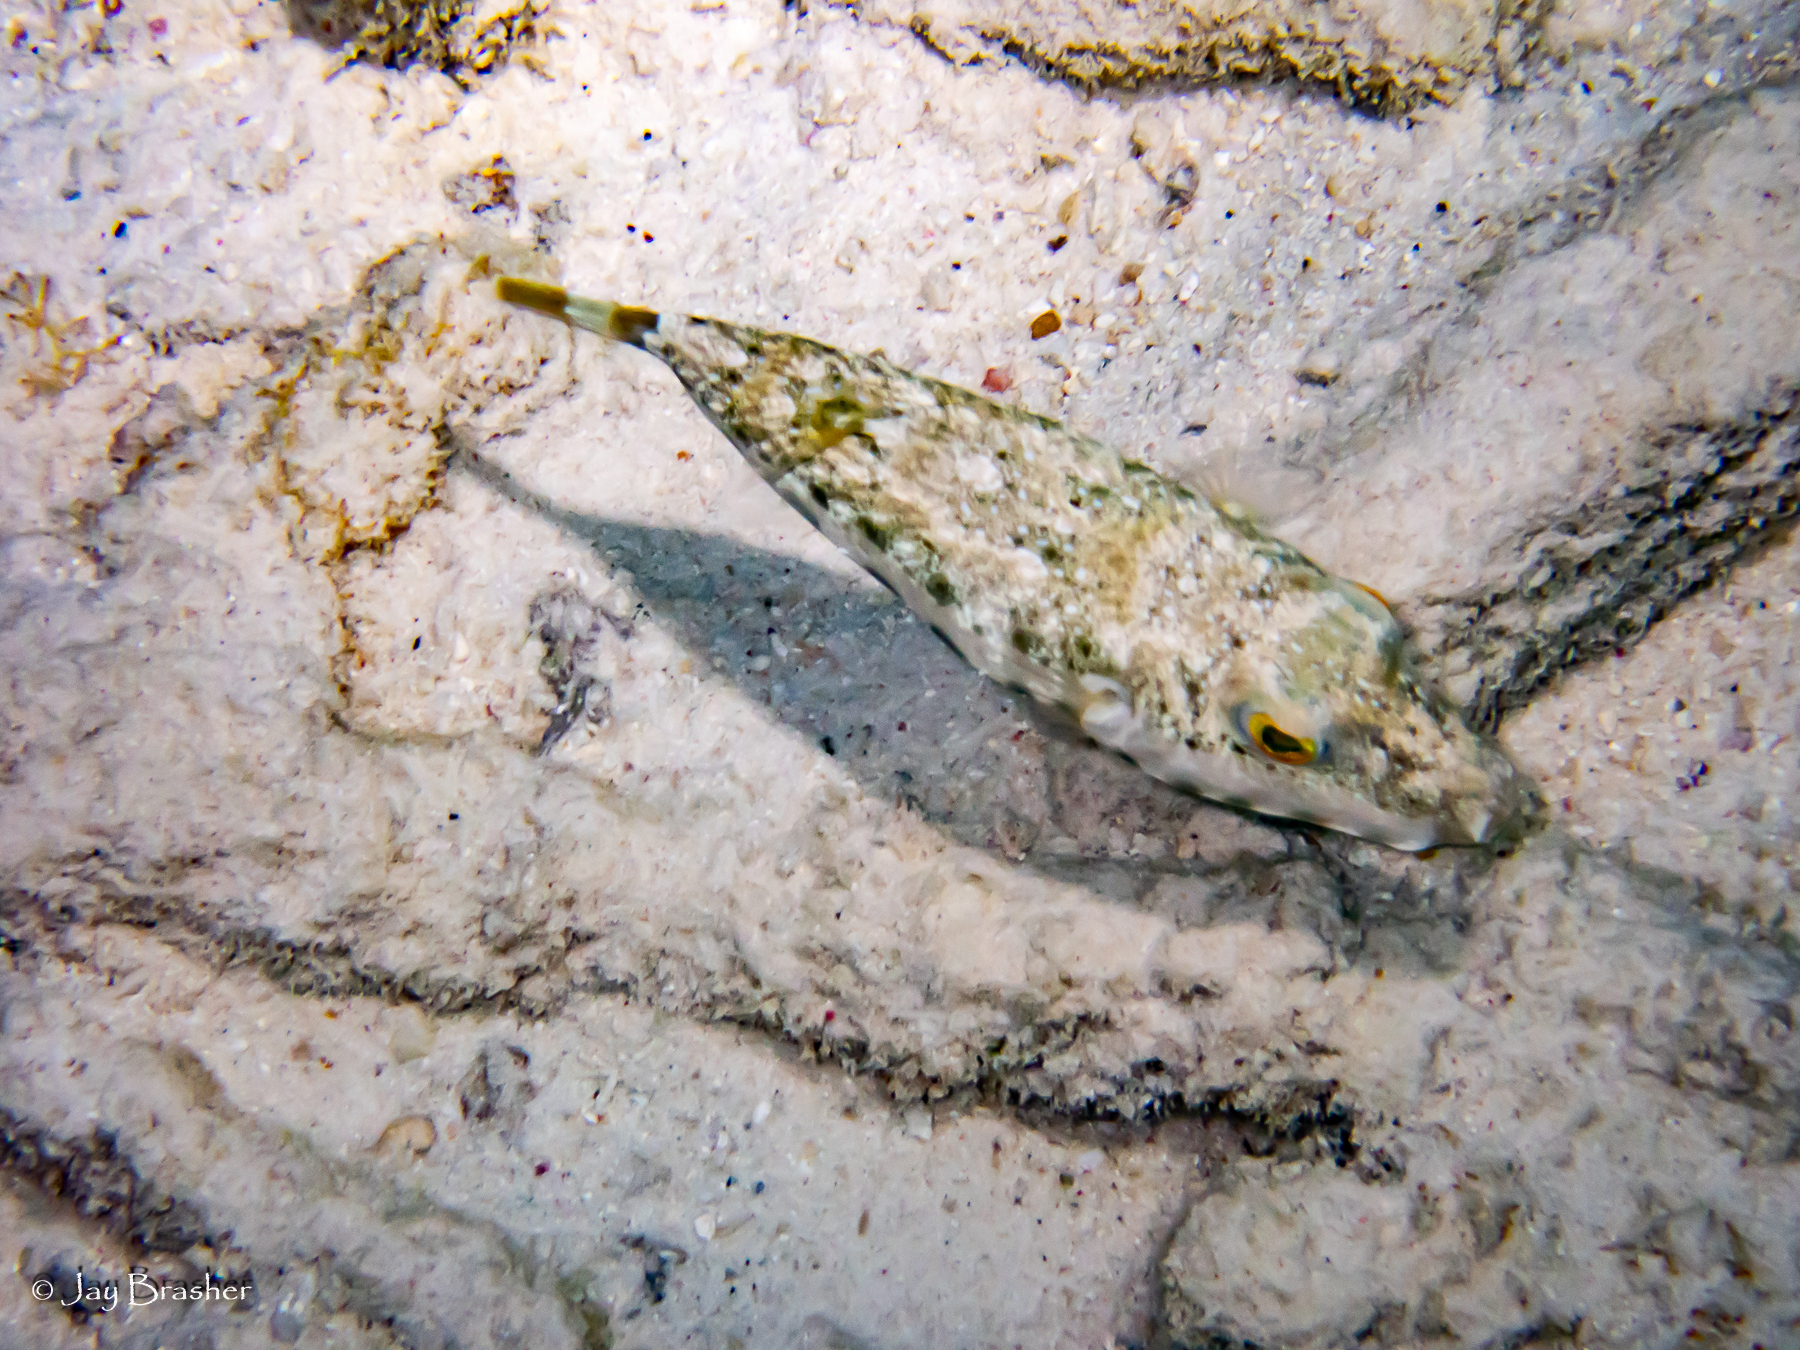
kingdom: Animalia
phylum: Chordata
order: Tetraodontiformes
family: Tetraodontidae
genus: Sphoeroides
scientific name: Sphoeroides spengleri
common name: Bandtail puffer
